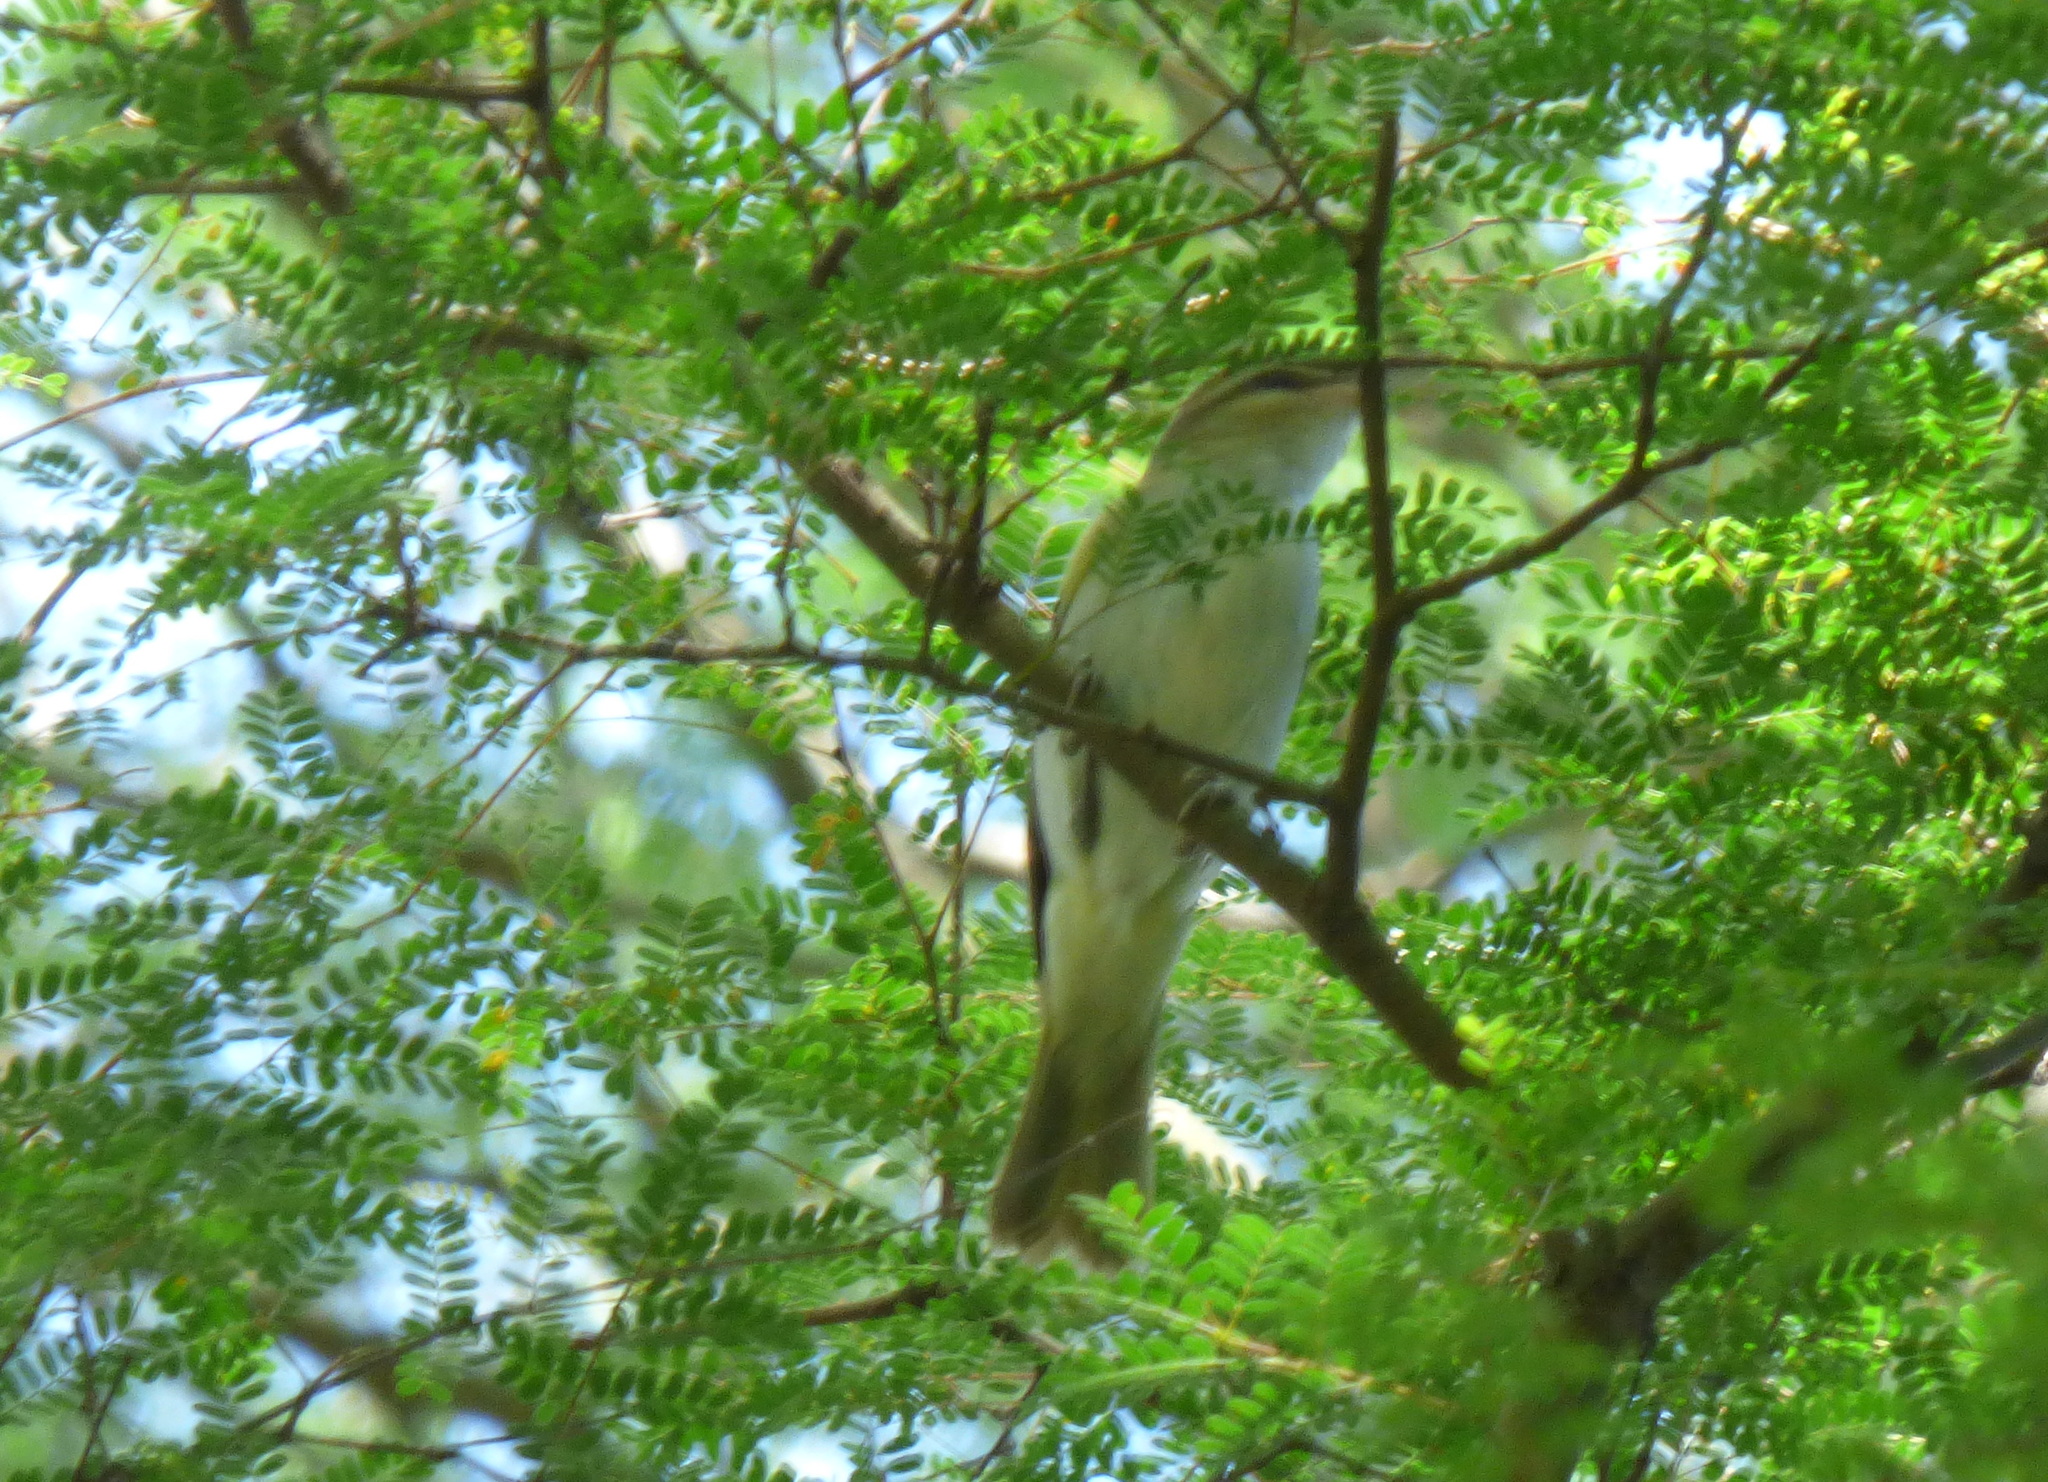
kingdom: Animalia
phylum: Chordata
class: Aves
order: Passeriformes
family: Vireonidae
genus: Vireo
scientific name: Vireo olivaceus
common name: Red-eyed vireo
